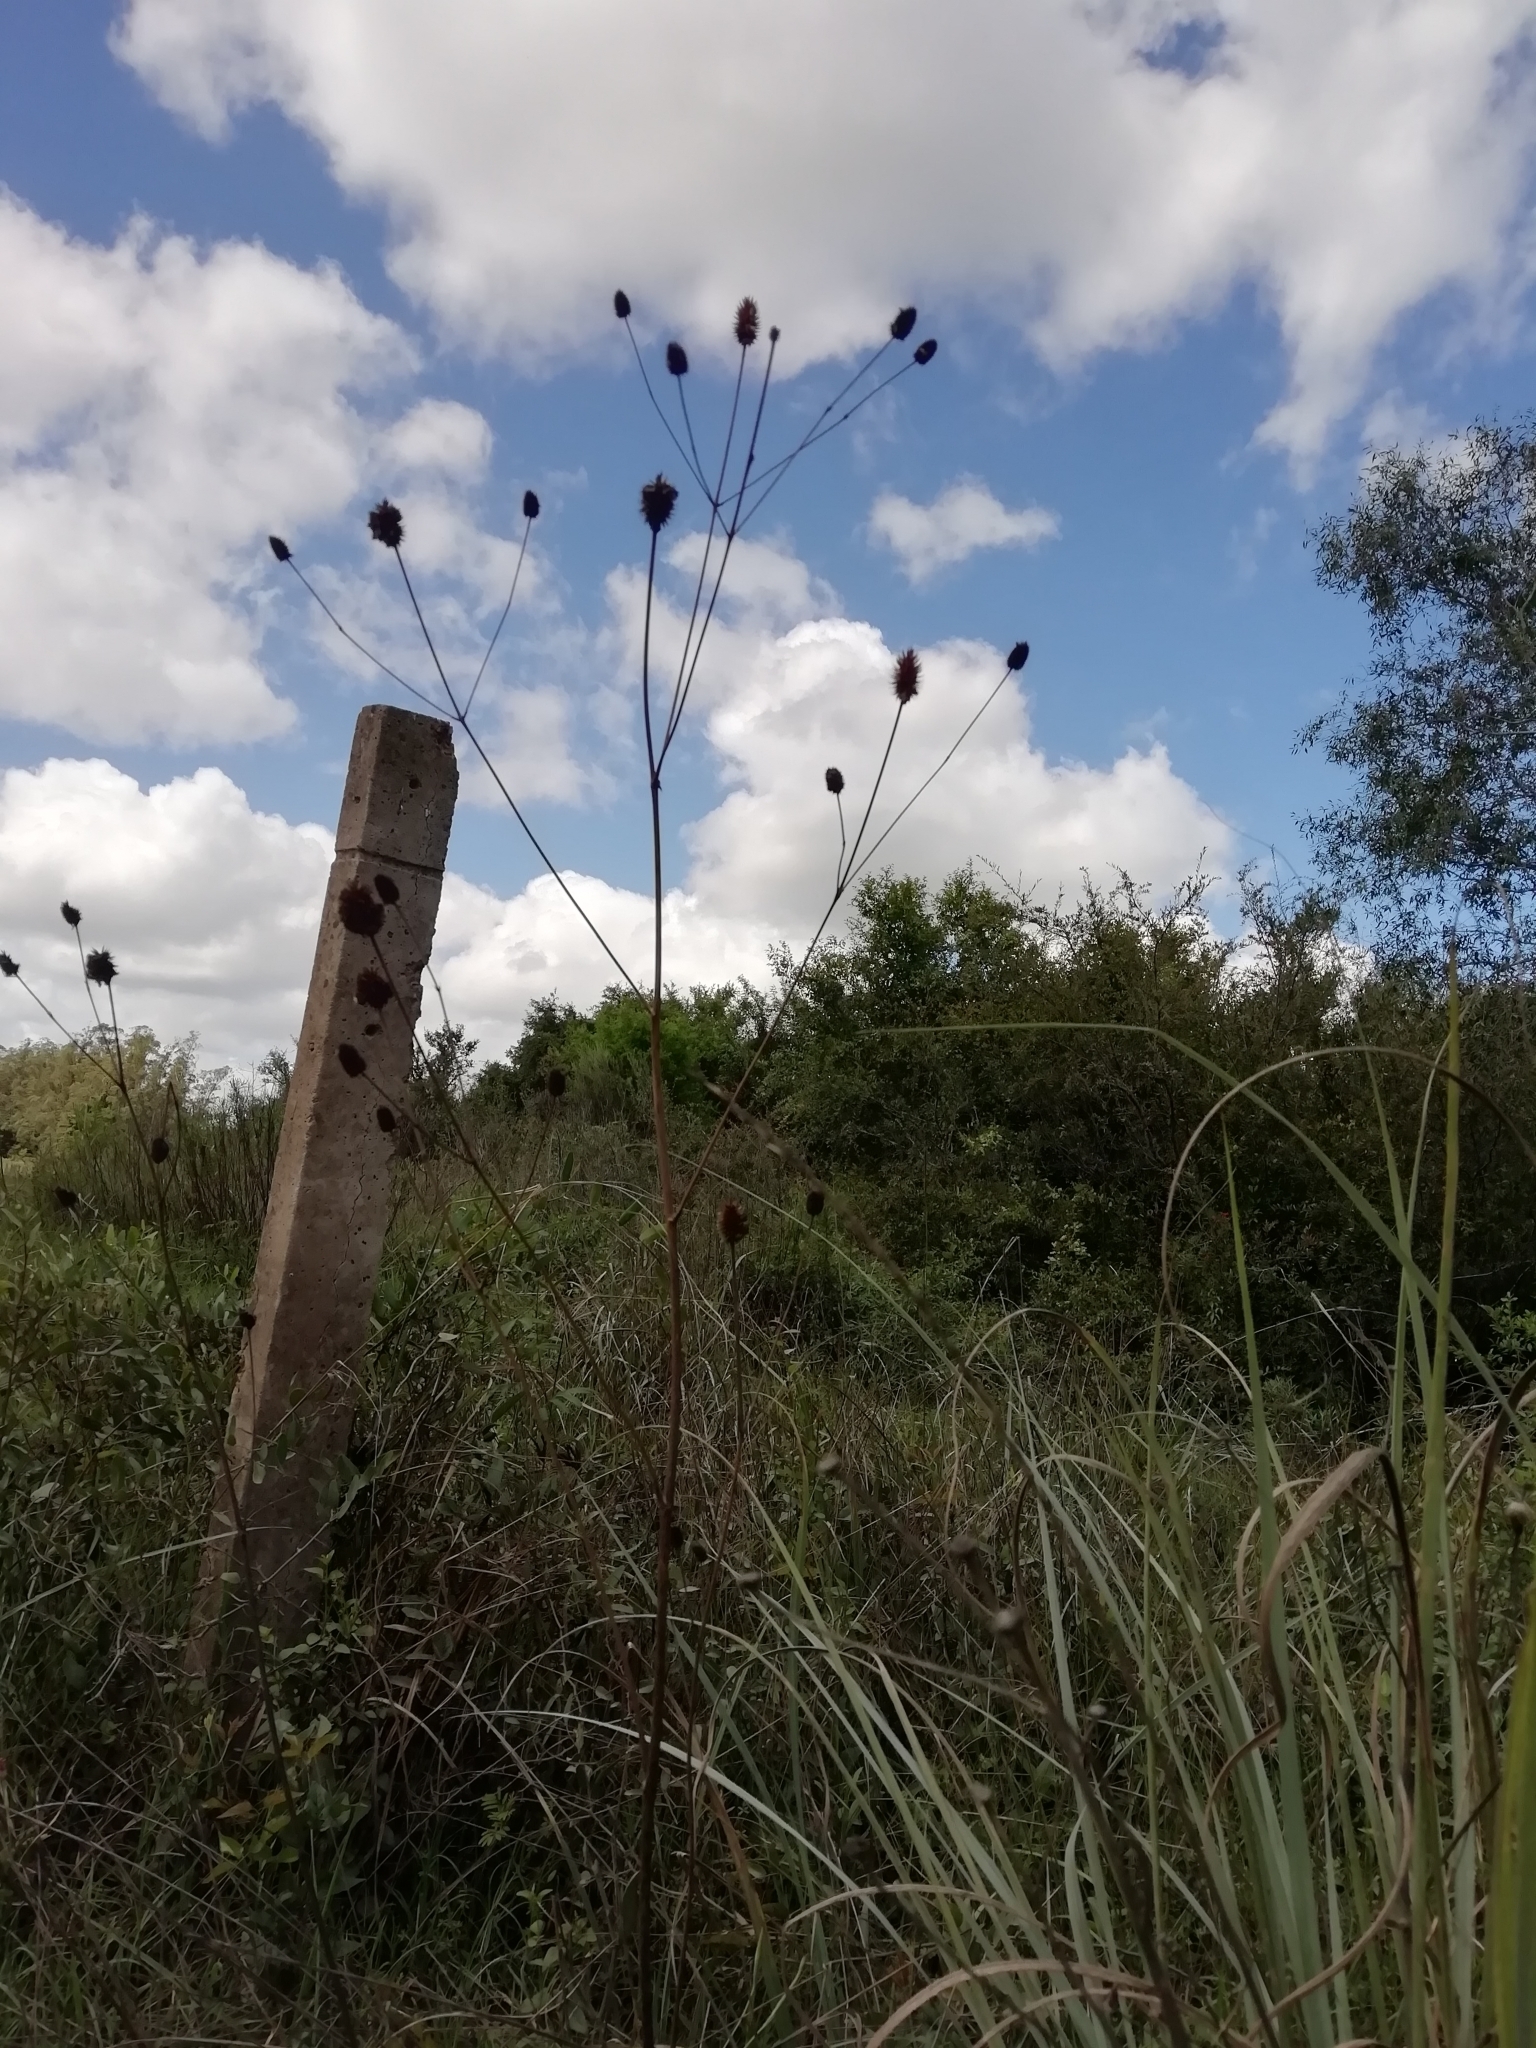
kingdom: Plantae
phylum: Tracheophyta
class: Magnoliopsida
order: Apiales
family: Apiaceae
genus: Eryngium
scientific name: Eryngium sanguisorba
